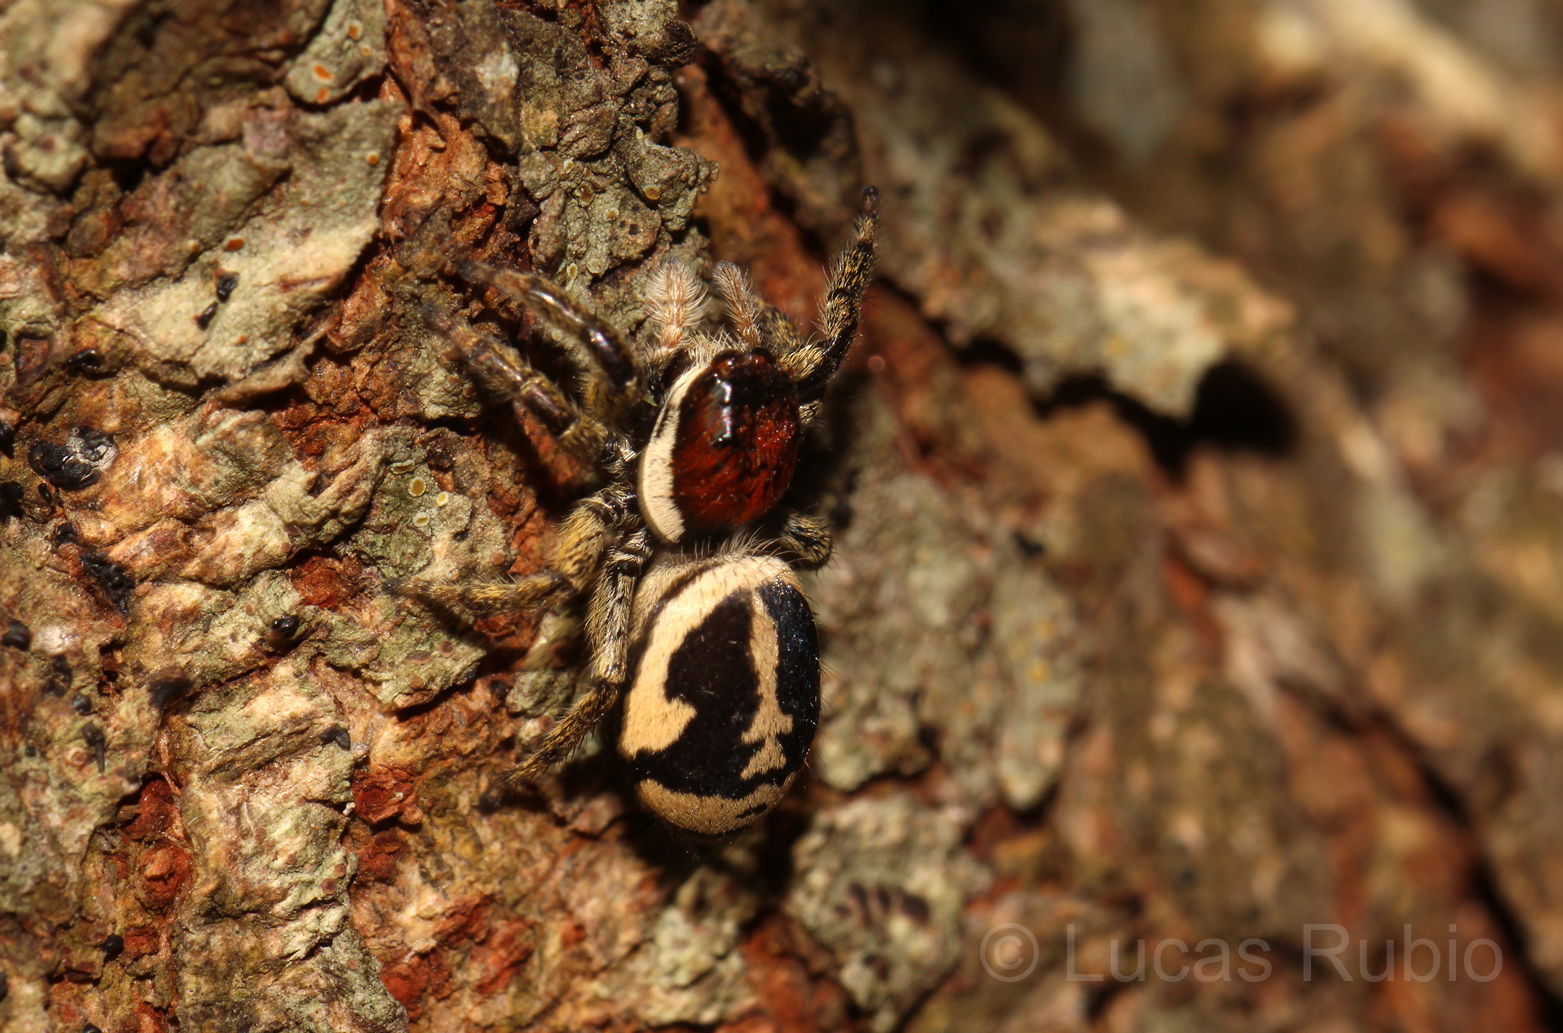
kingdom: Animalia
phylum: Arthropoda
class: Arachnida
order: Araneae
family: Salticidae
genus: Phiale
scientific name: Phiale roburifoliata
